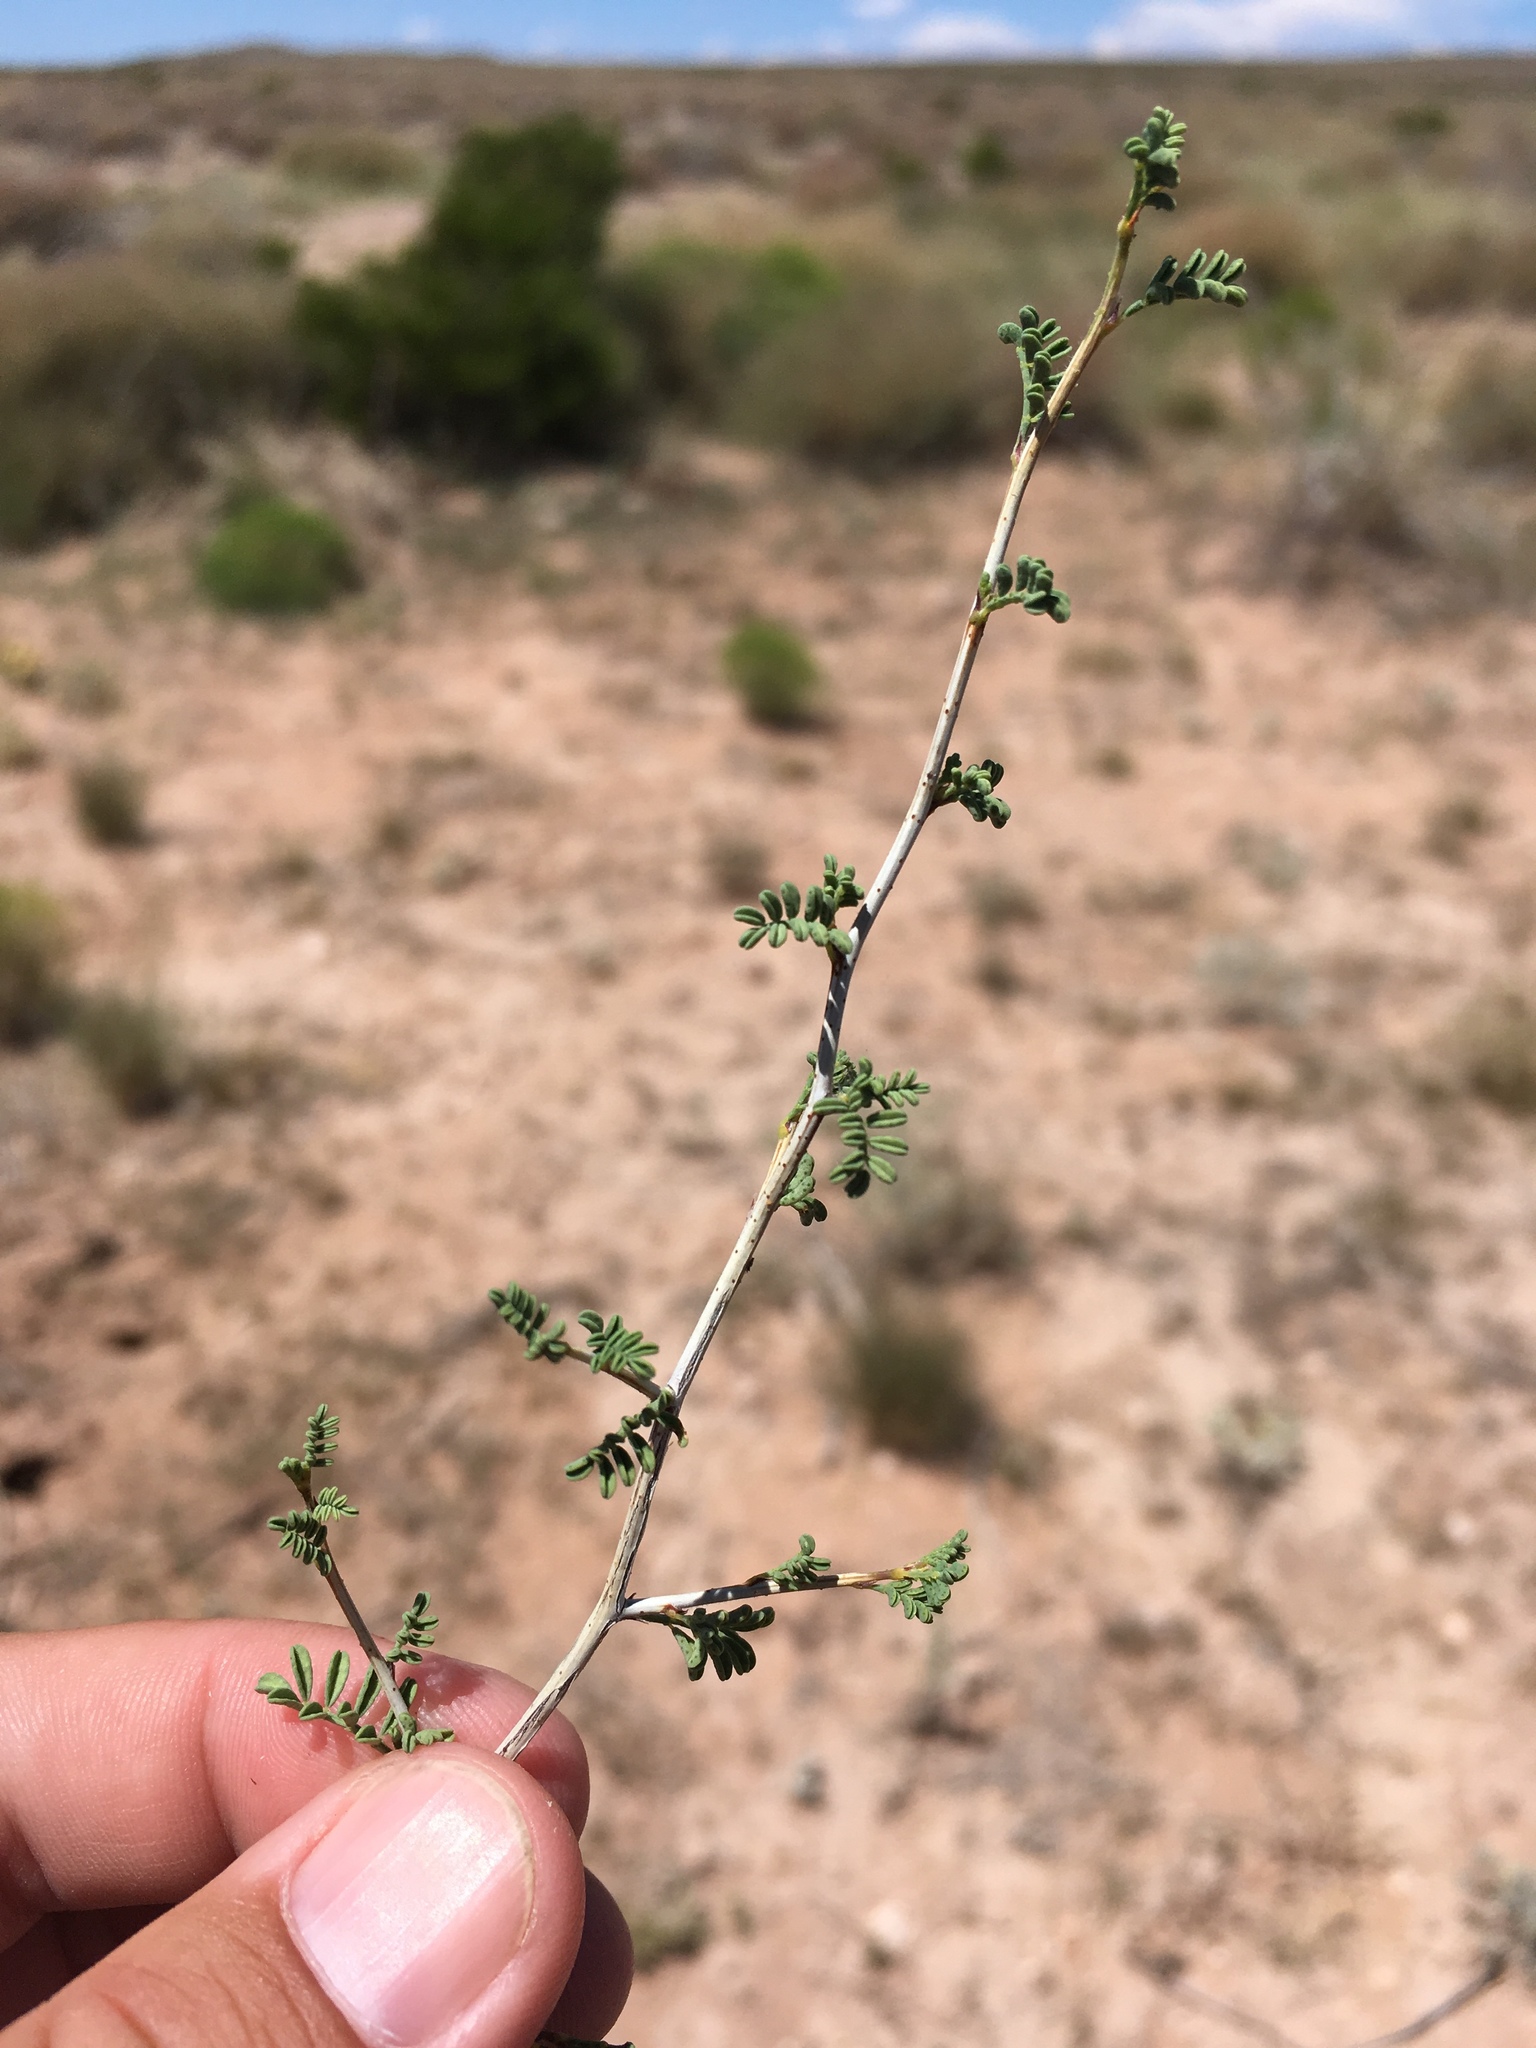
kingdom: Plantae
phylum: Tracheophyta
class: Magnoliopsida
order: Fabales
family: Fabaceae
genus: Dalea
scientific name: Dalea formosa
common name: Feather-plume dalea
